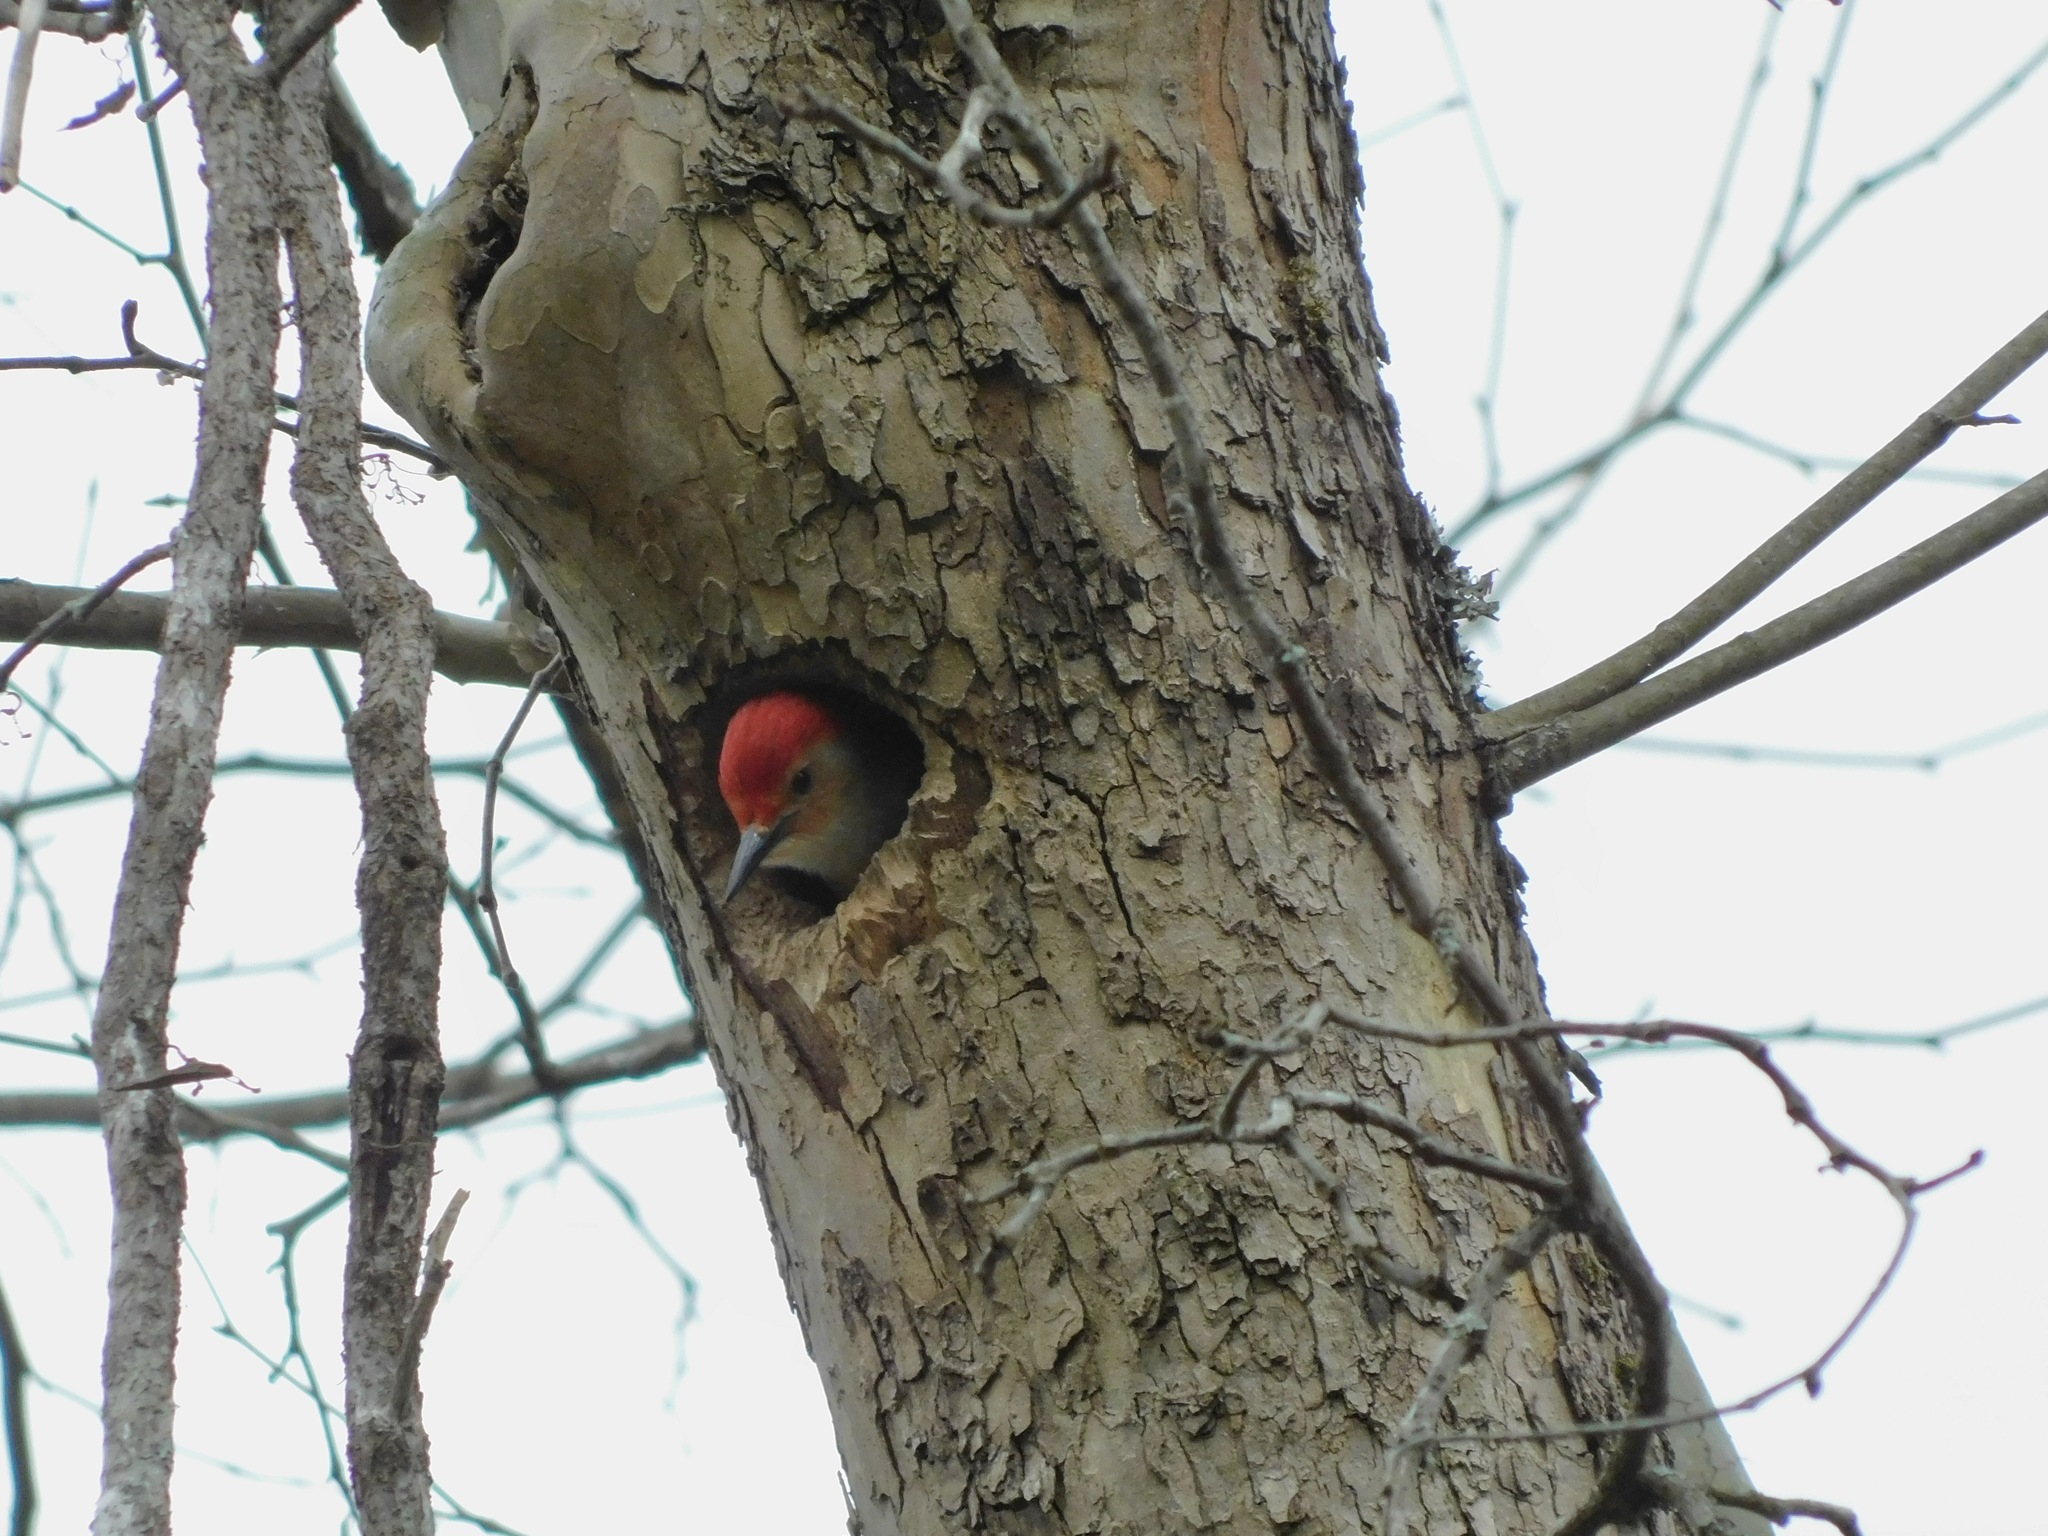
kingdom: Animalia
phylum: Chordata
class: Aves
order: Piciformes
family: Picidae
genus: Melanerpes
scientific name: Melanerpes carolinus
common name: Red-bellied woodpecker
